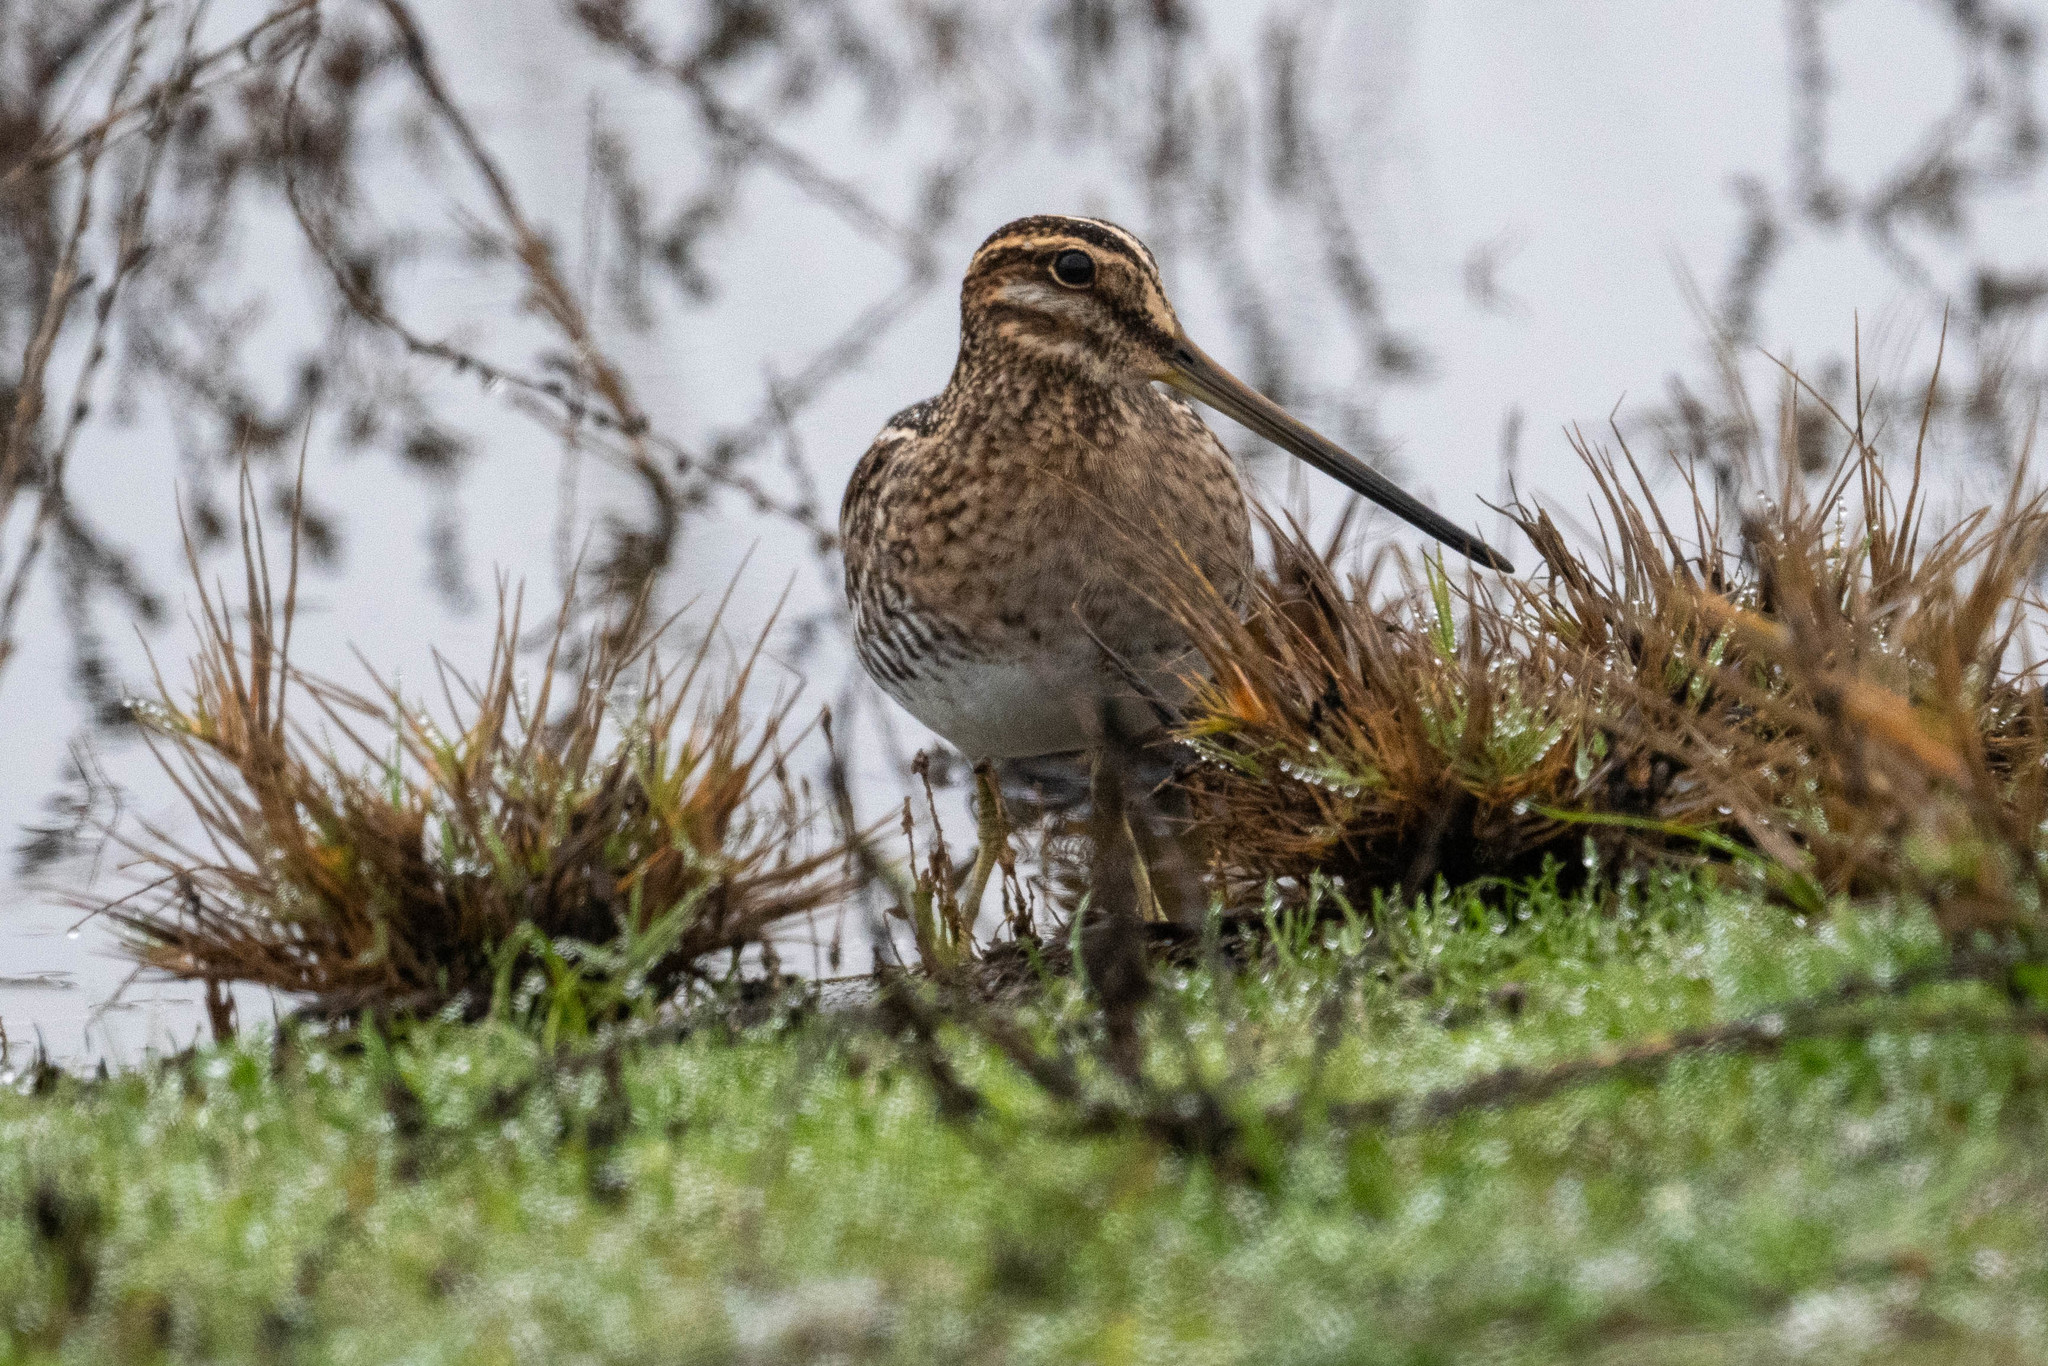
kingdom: Animalia
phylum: Chordata
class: Aves
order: Charadriiformes
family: Scolopacidae
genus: Gallinago
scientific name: Gallinago delicata
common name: Wilson's snipe
